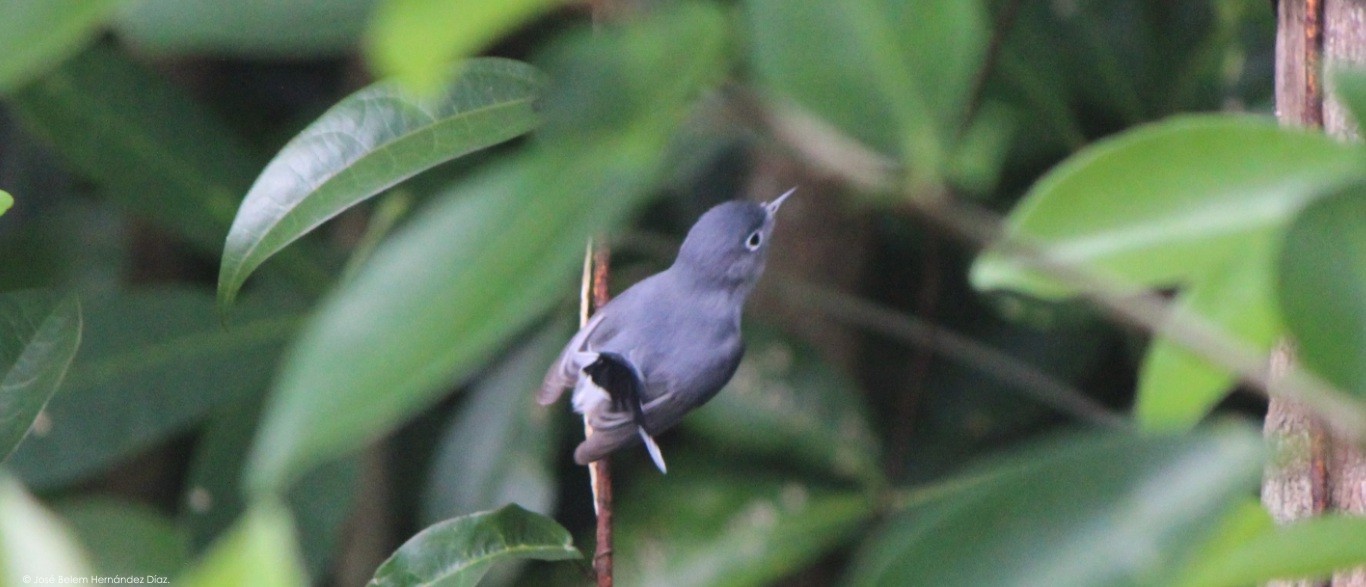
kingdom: Animalia
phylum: Chordata
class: Aves
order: Passeriformes
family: Polioptilidae
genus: Polioptila
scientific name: Polioptila caerulea
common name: Blue-gray gnatcatcher
